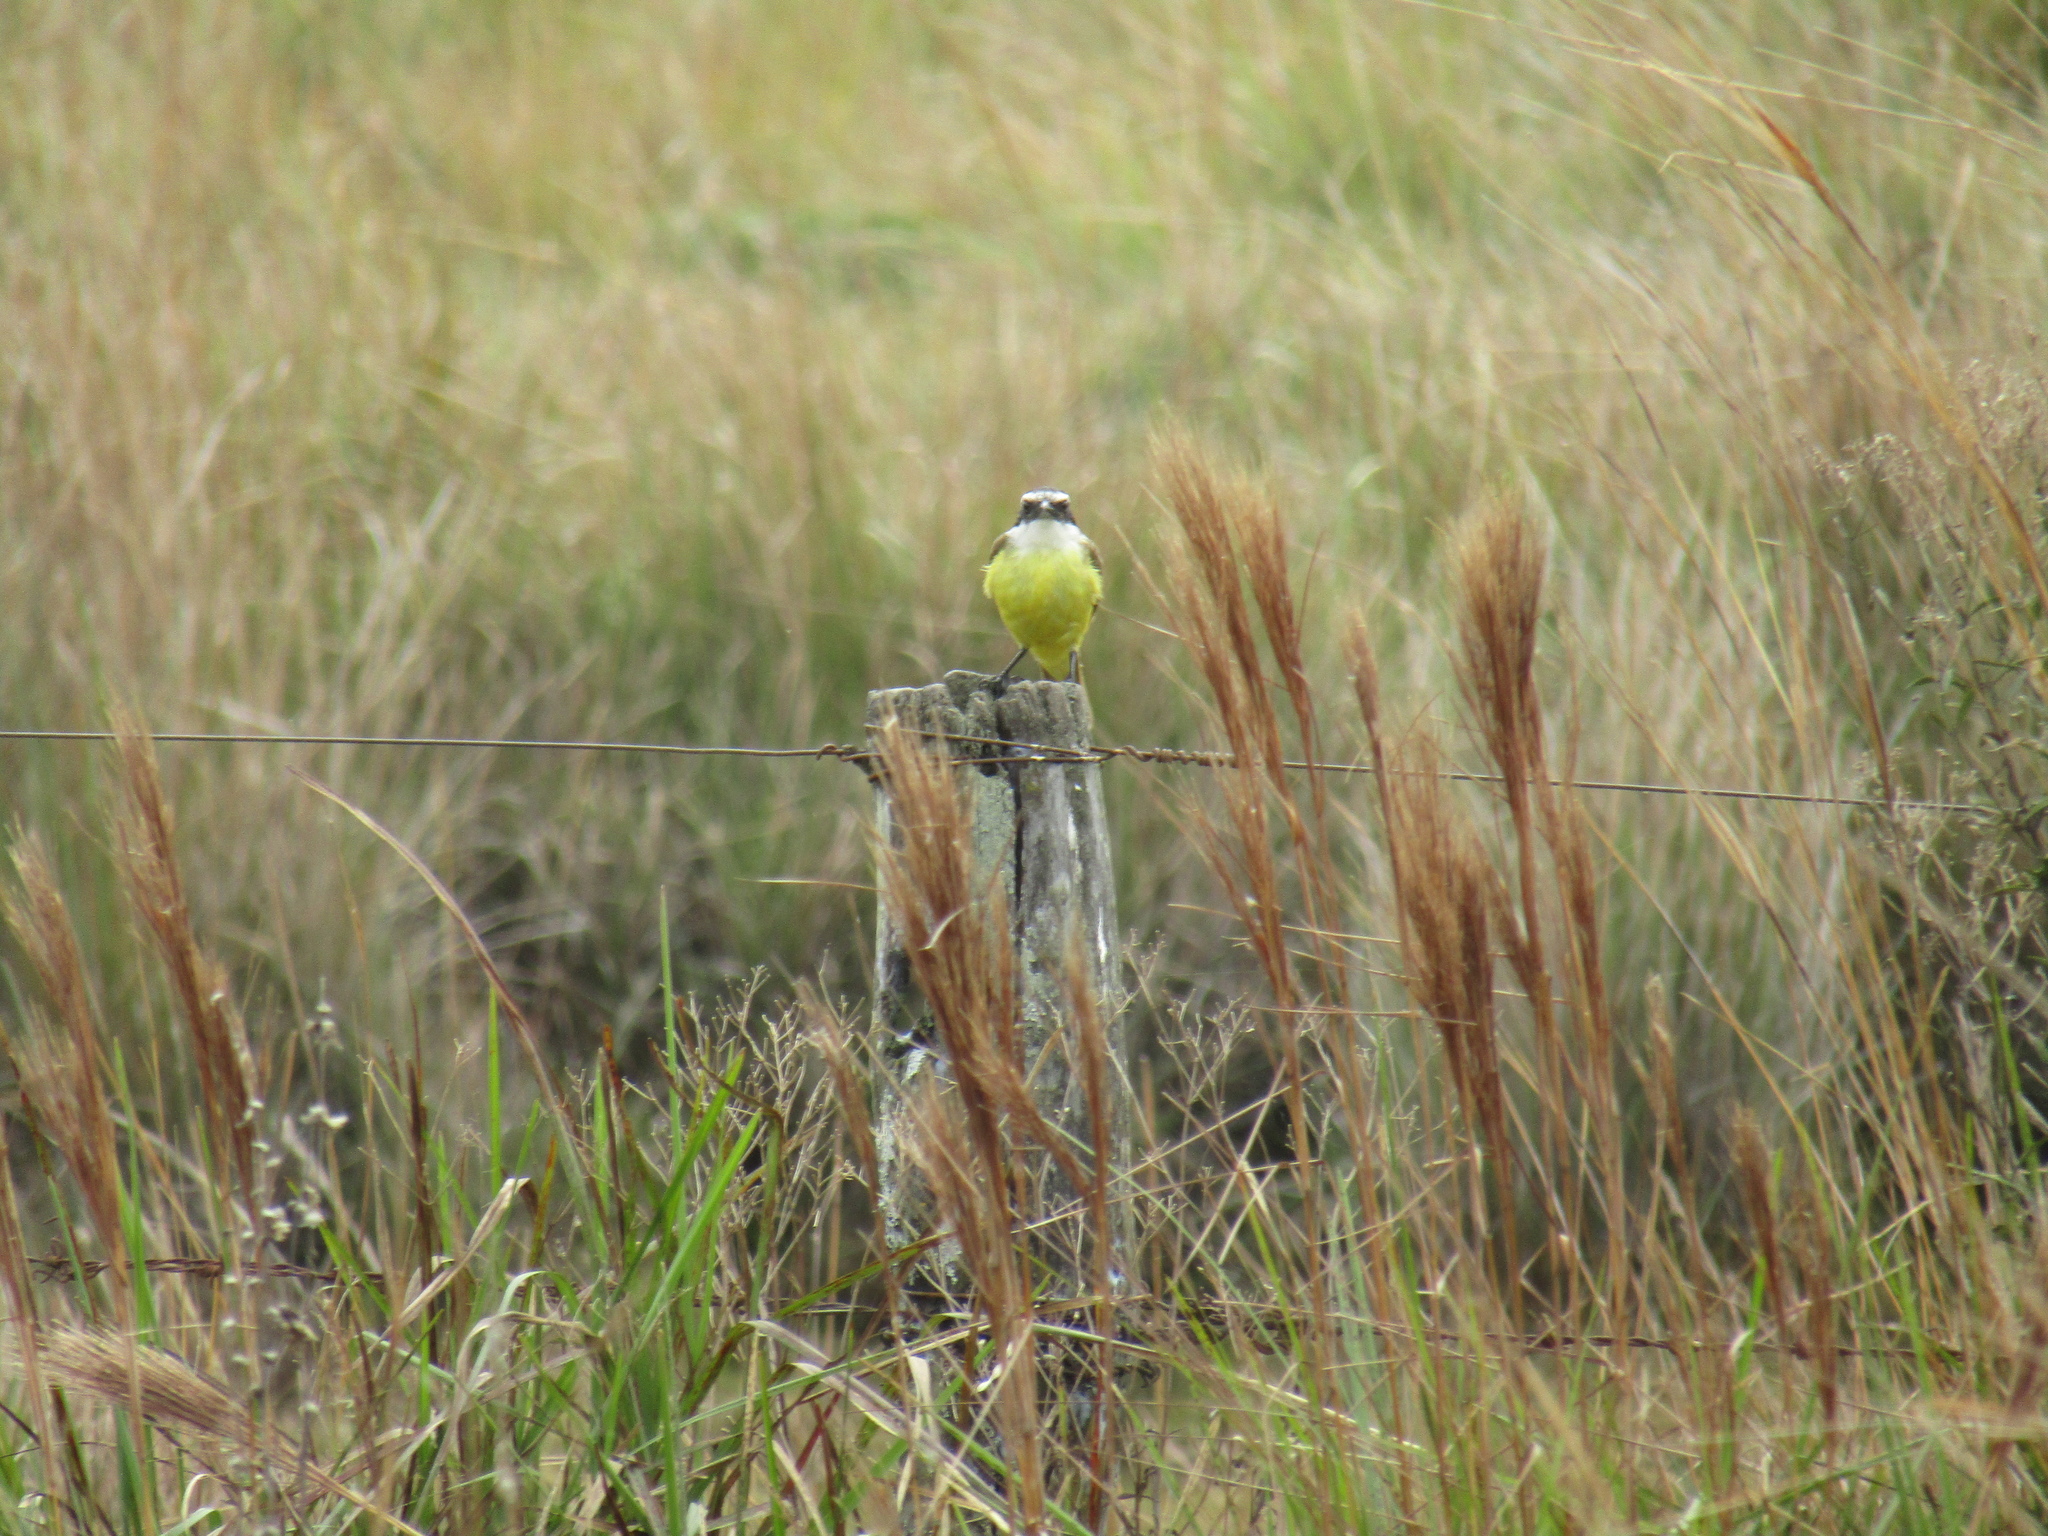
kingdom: Animalia
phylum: Chordata
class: Aves
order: Passeriformes
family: Tyrannidae
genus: Pitangus
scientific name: Pitangus sulphuratus
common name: Great kiskadee
